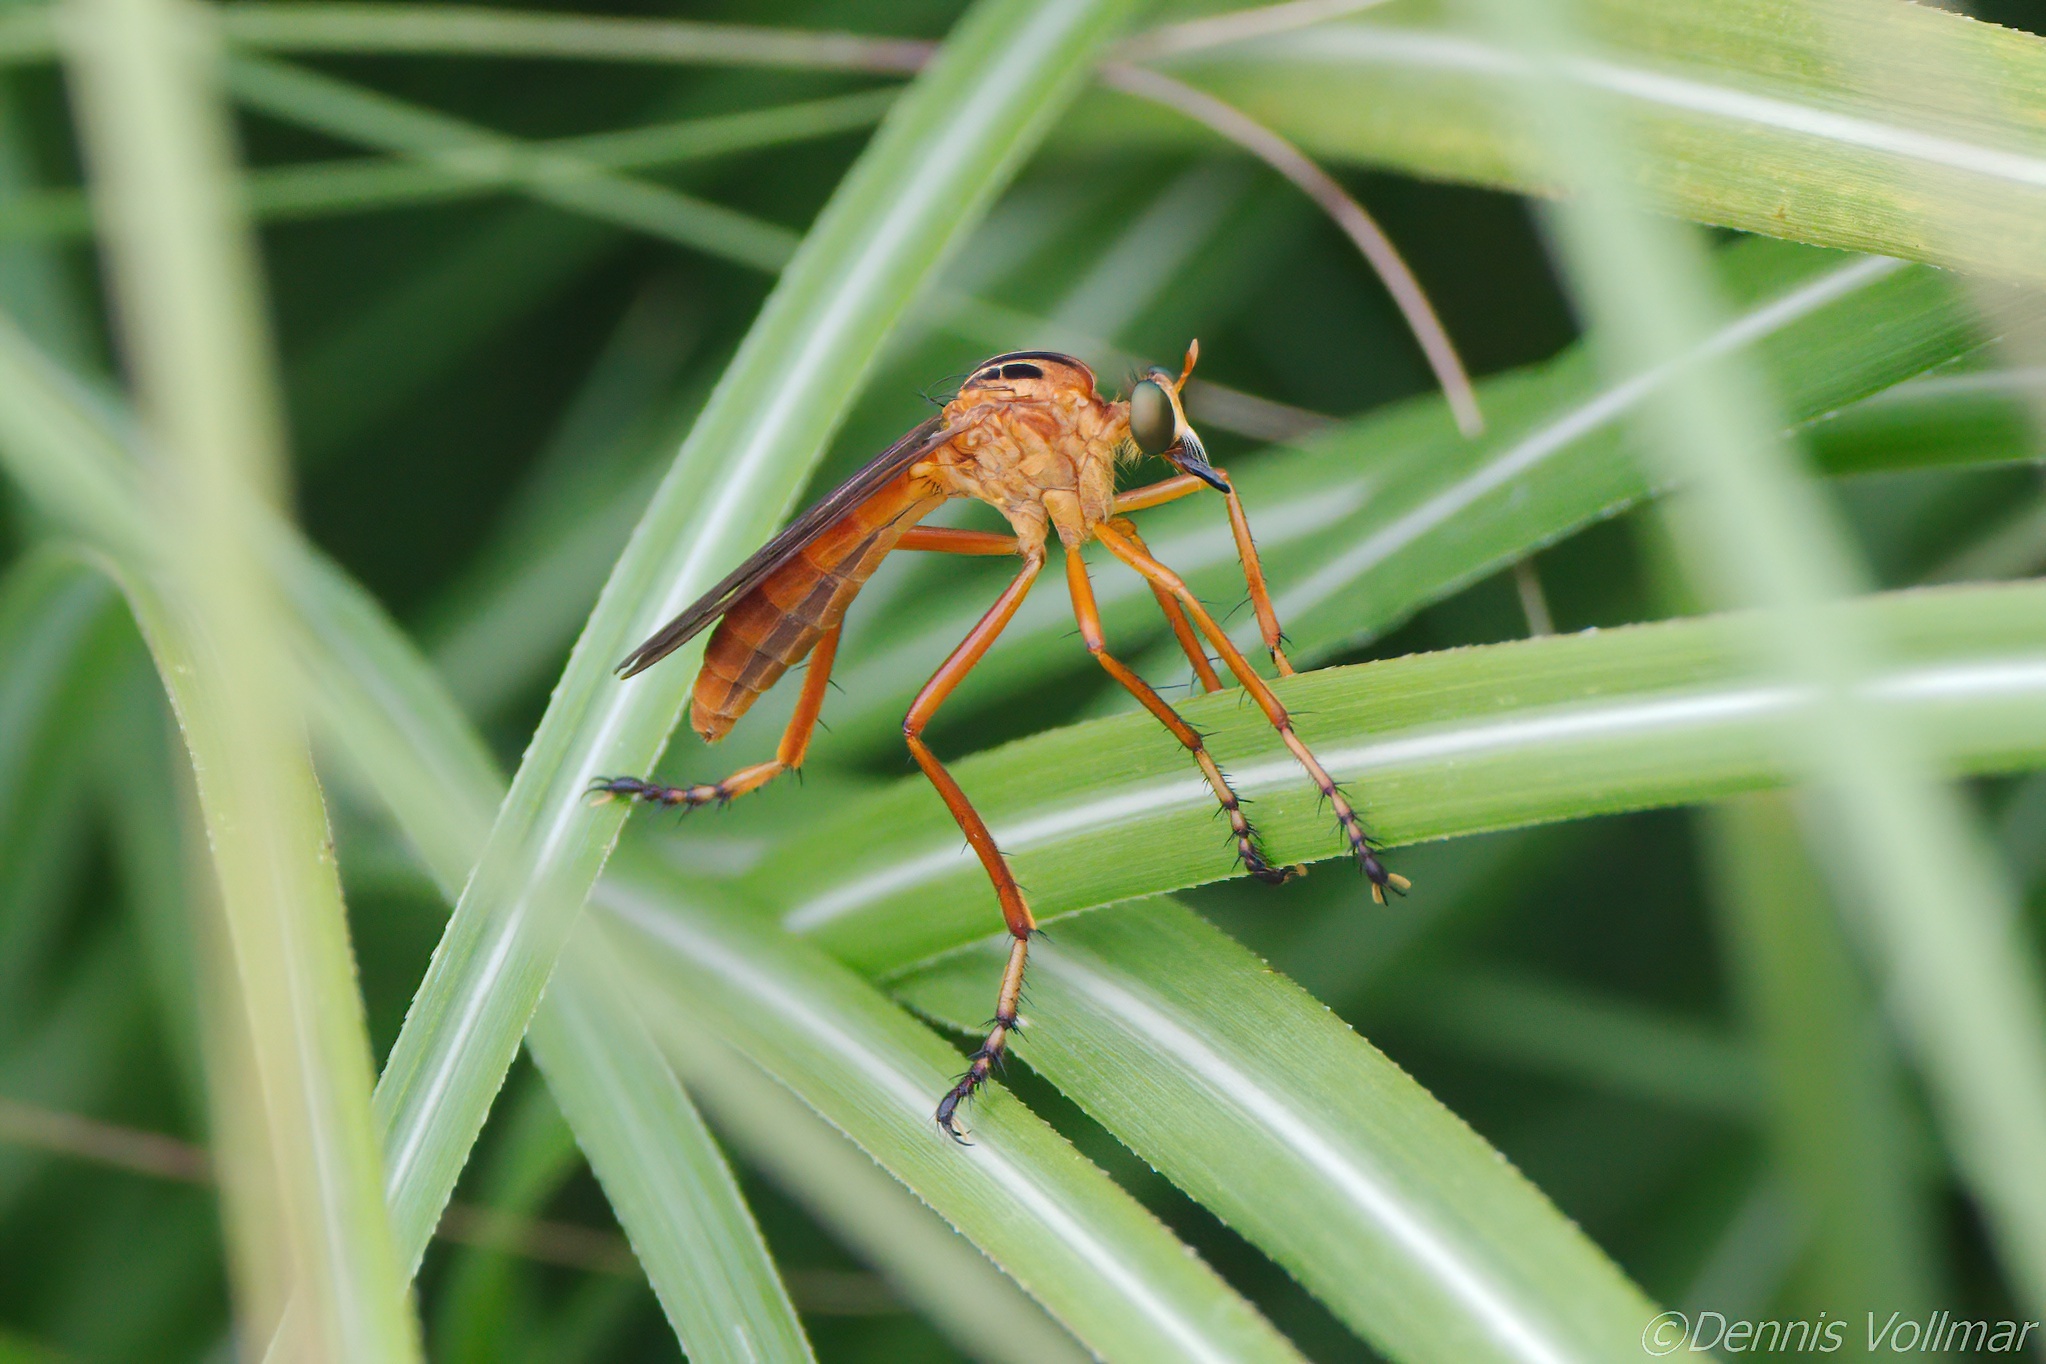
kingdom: Animalia
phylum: Arthropoda
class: Insecta
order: Diptera
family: Asilidae
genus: Diogmites
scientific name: Diogmites neoternatus
